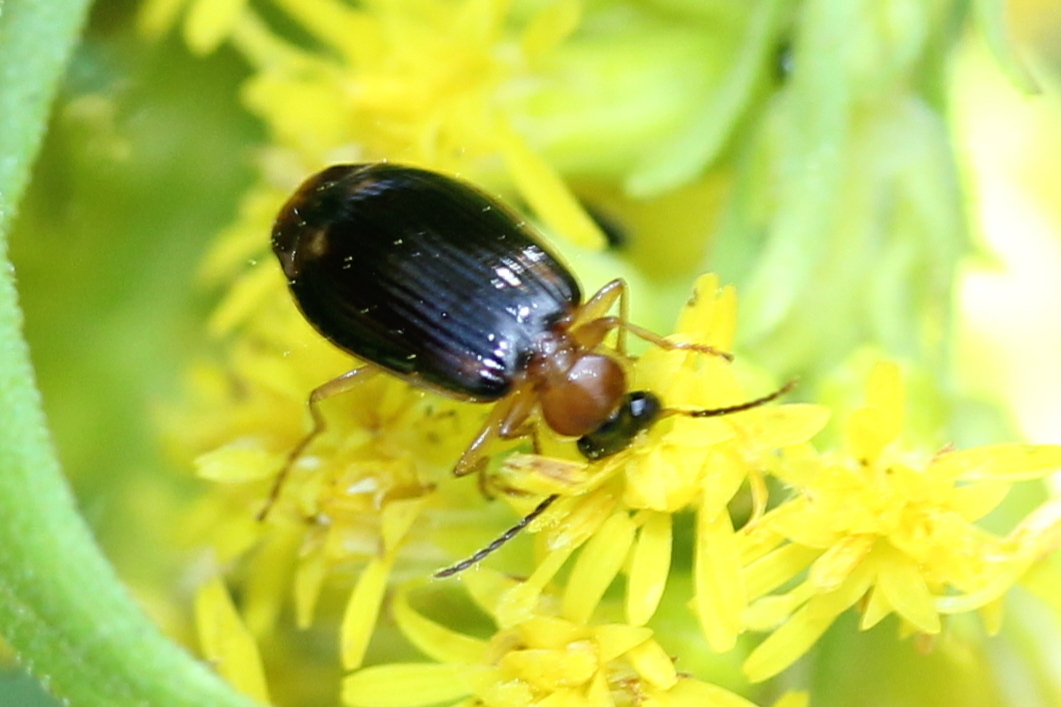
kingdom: Animalia
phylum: Arthropoda
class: Insecta
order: Coleoptera
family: Carabidae
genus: Lebia
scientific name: Lebia analis
